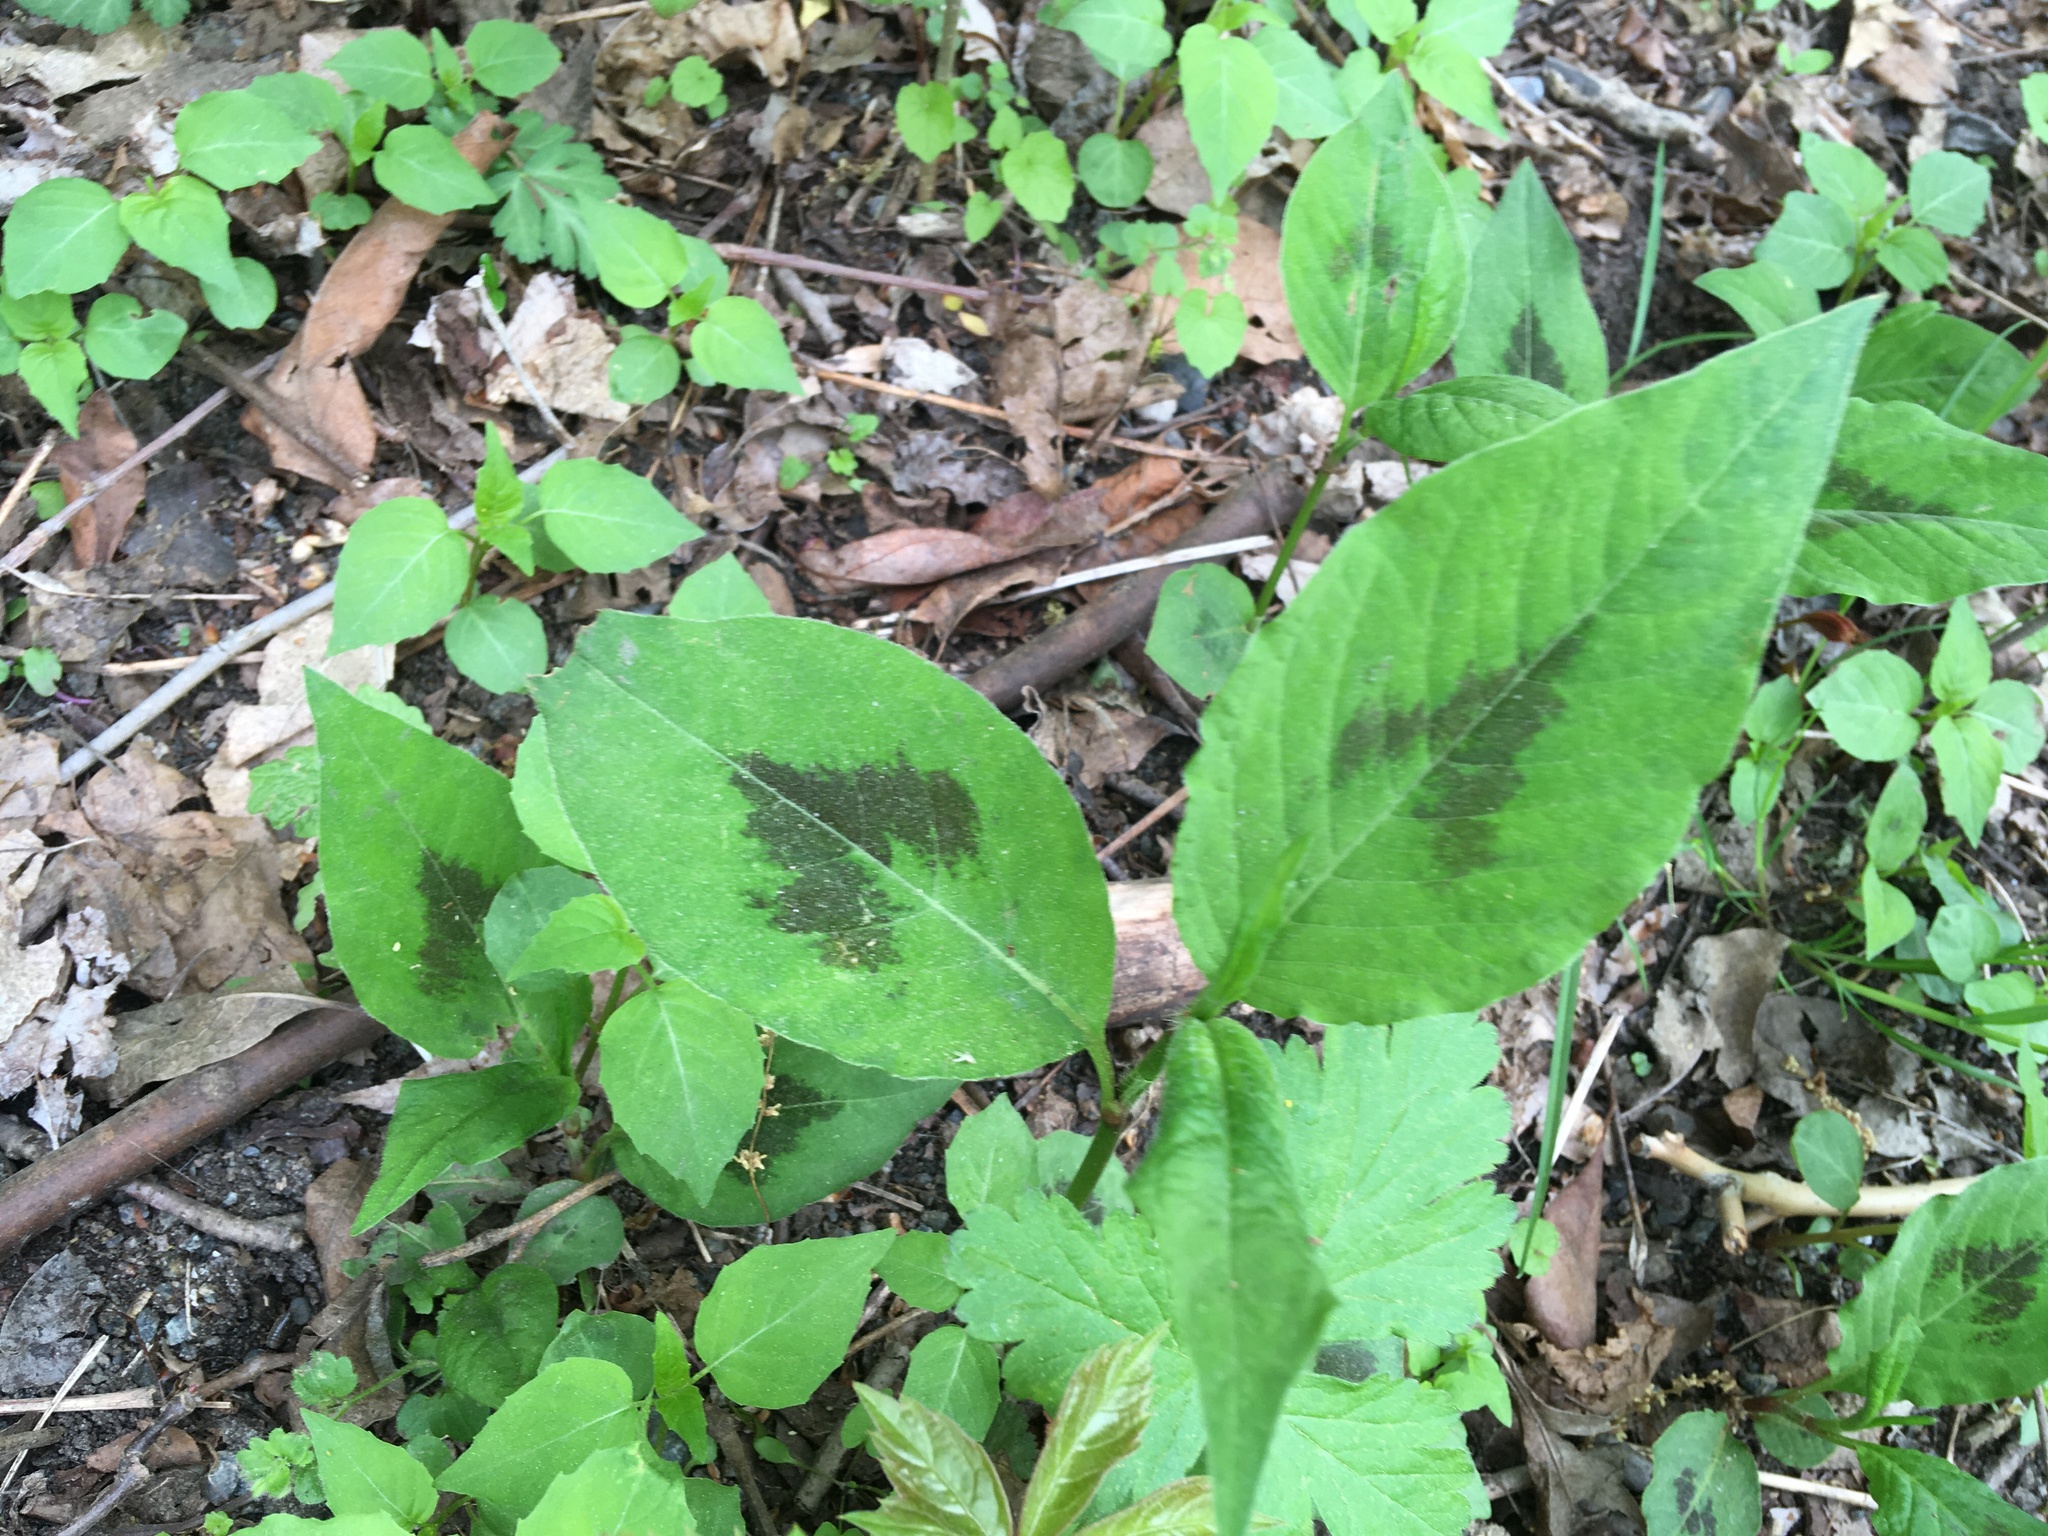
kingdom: Plantae
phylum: Tracheophyta
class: Magnoliopsida
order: Caryophyllales
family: Polygonaceae
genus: Persicaria
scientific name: Persicaria virginiana
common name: Jumpseed
